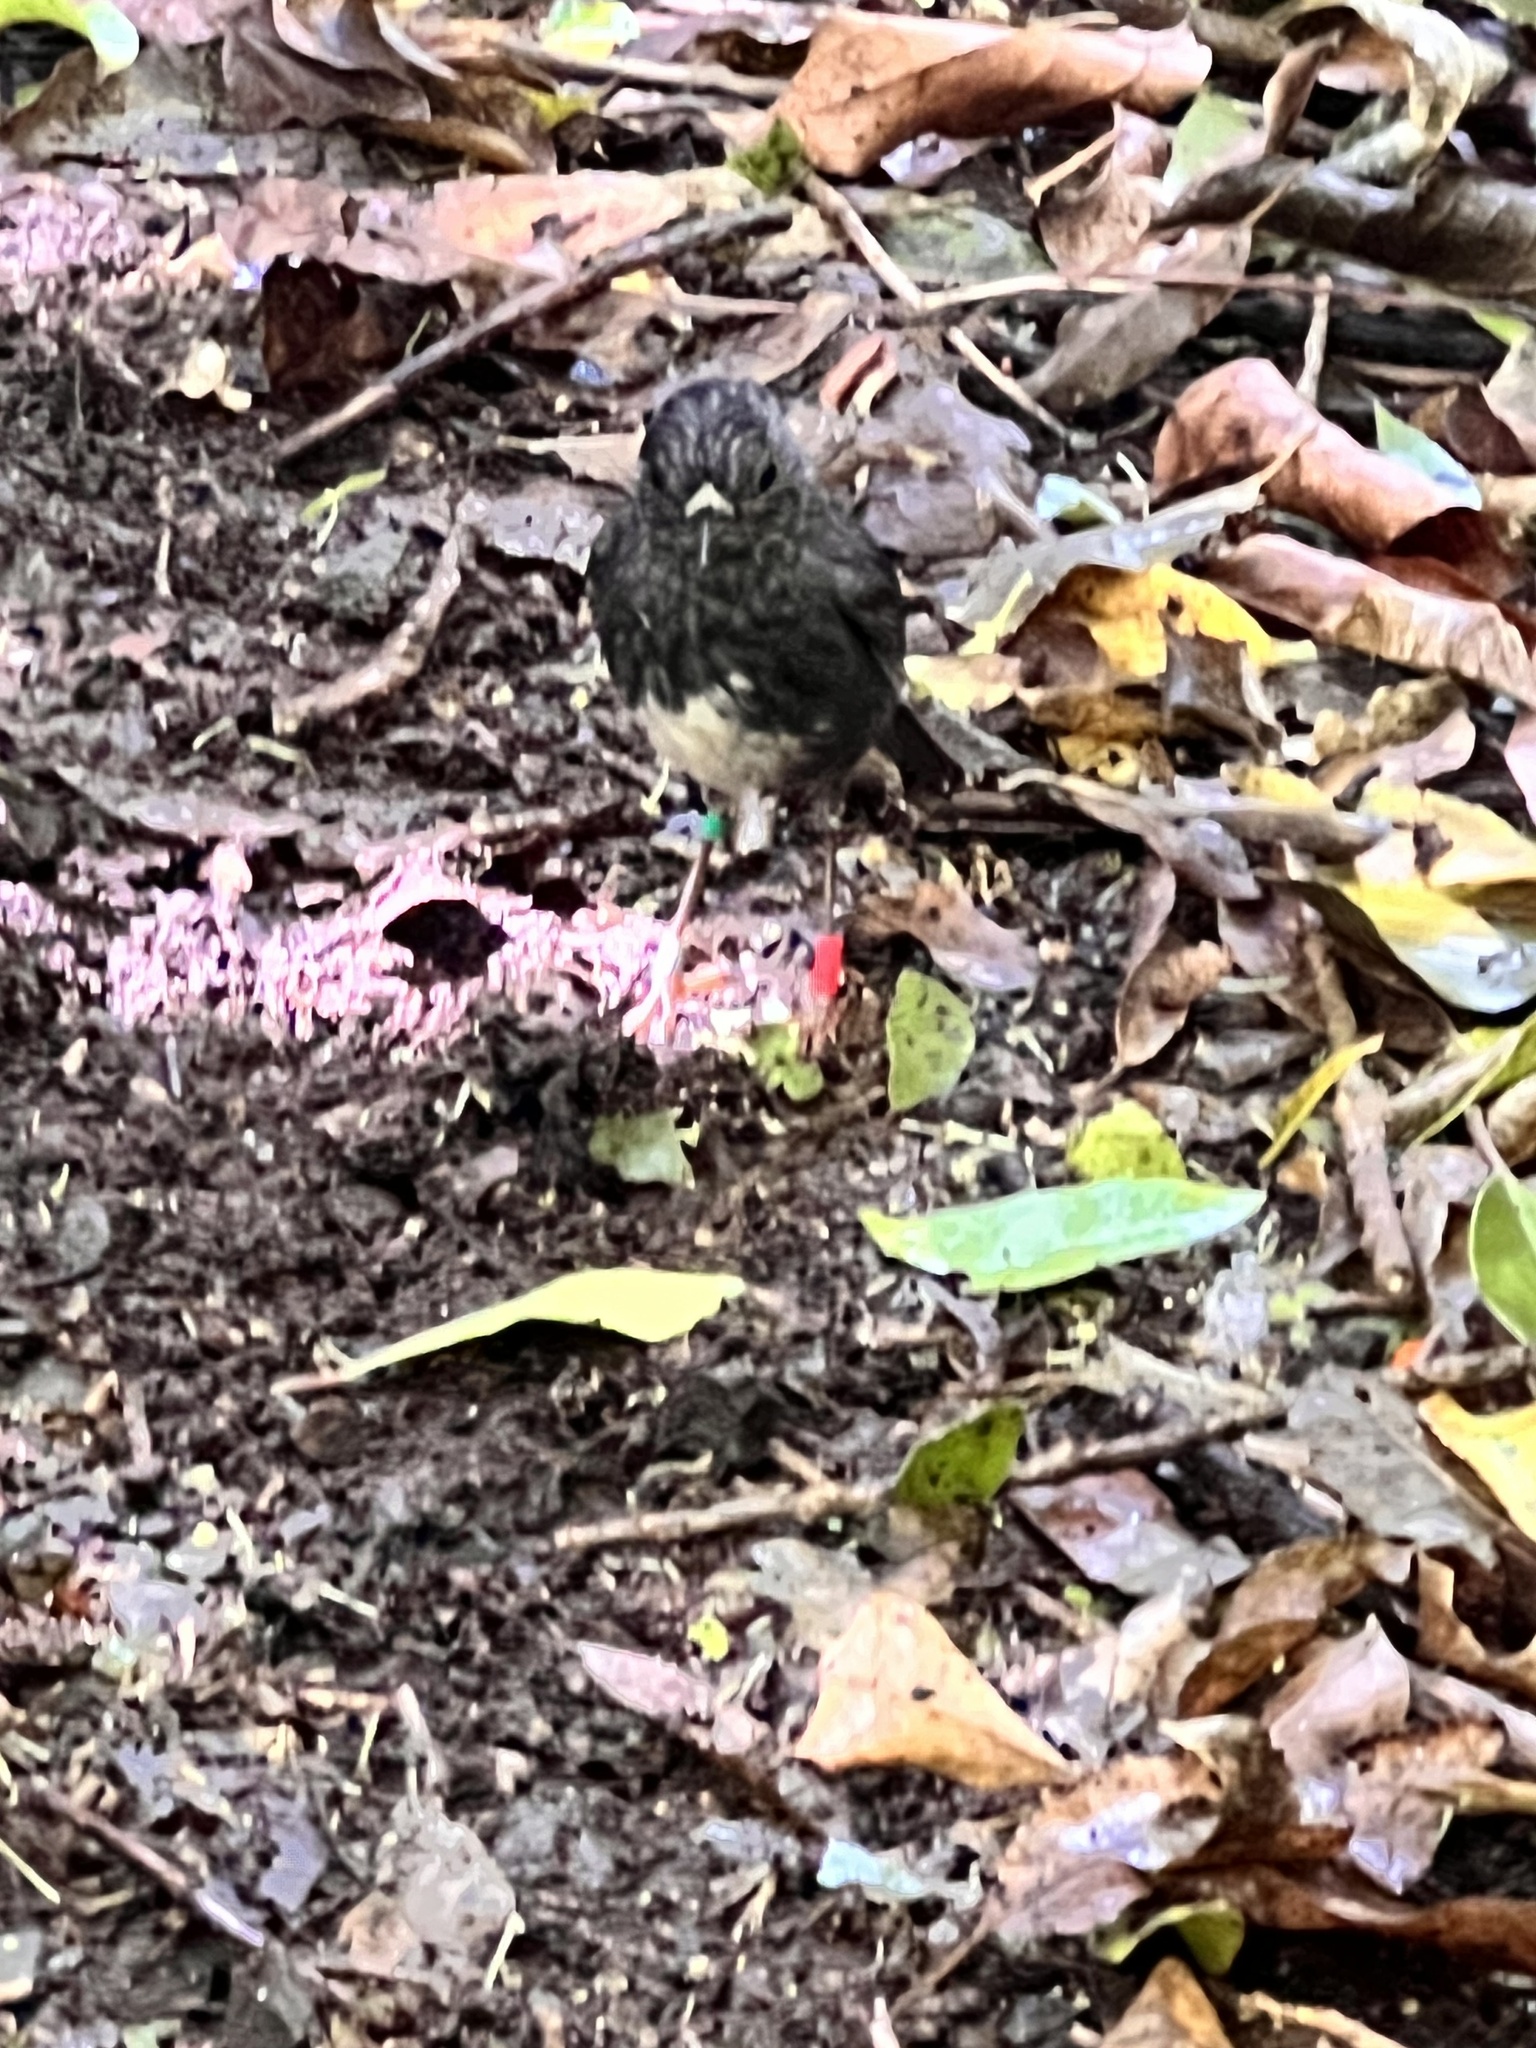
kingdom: Animalia
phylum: Chordata
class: Aves
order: Passeriformes
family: Petroicidae
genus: Petroica
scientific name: Petroica australis
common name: New zealand robin
